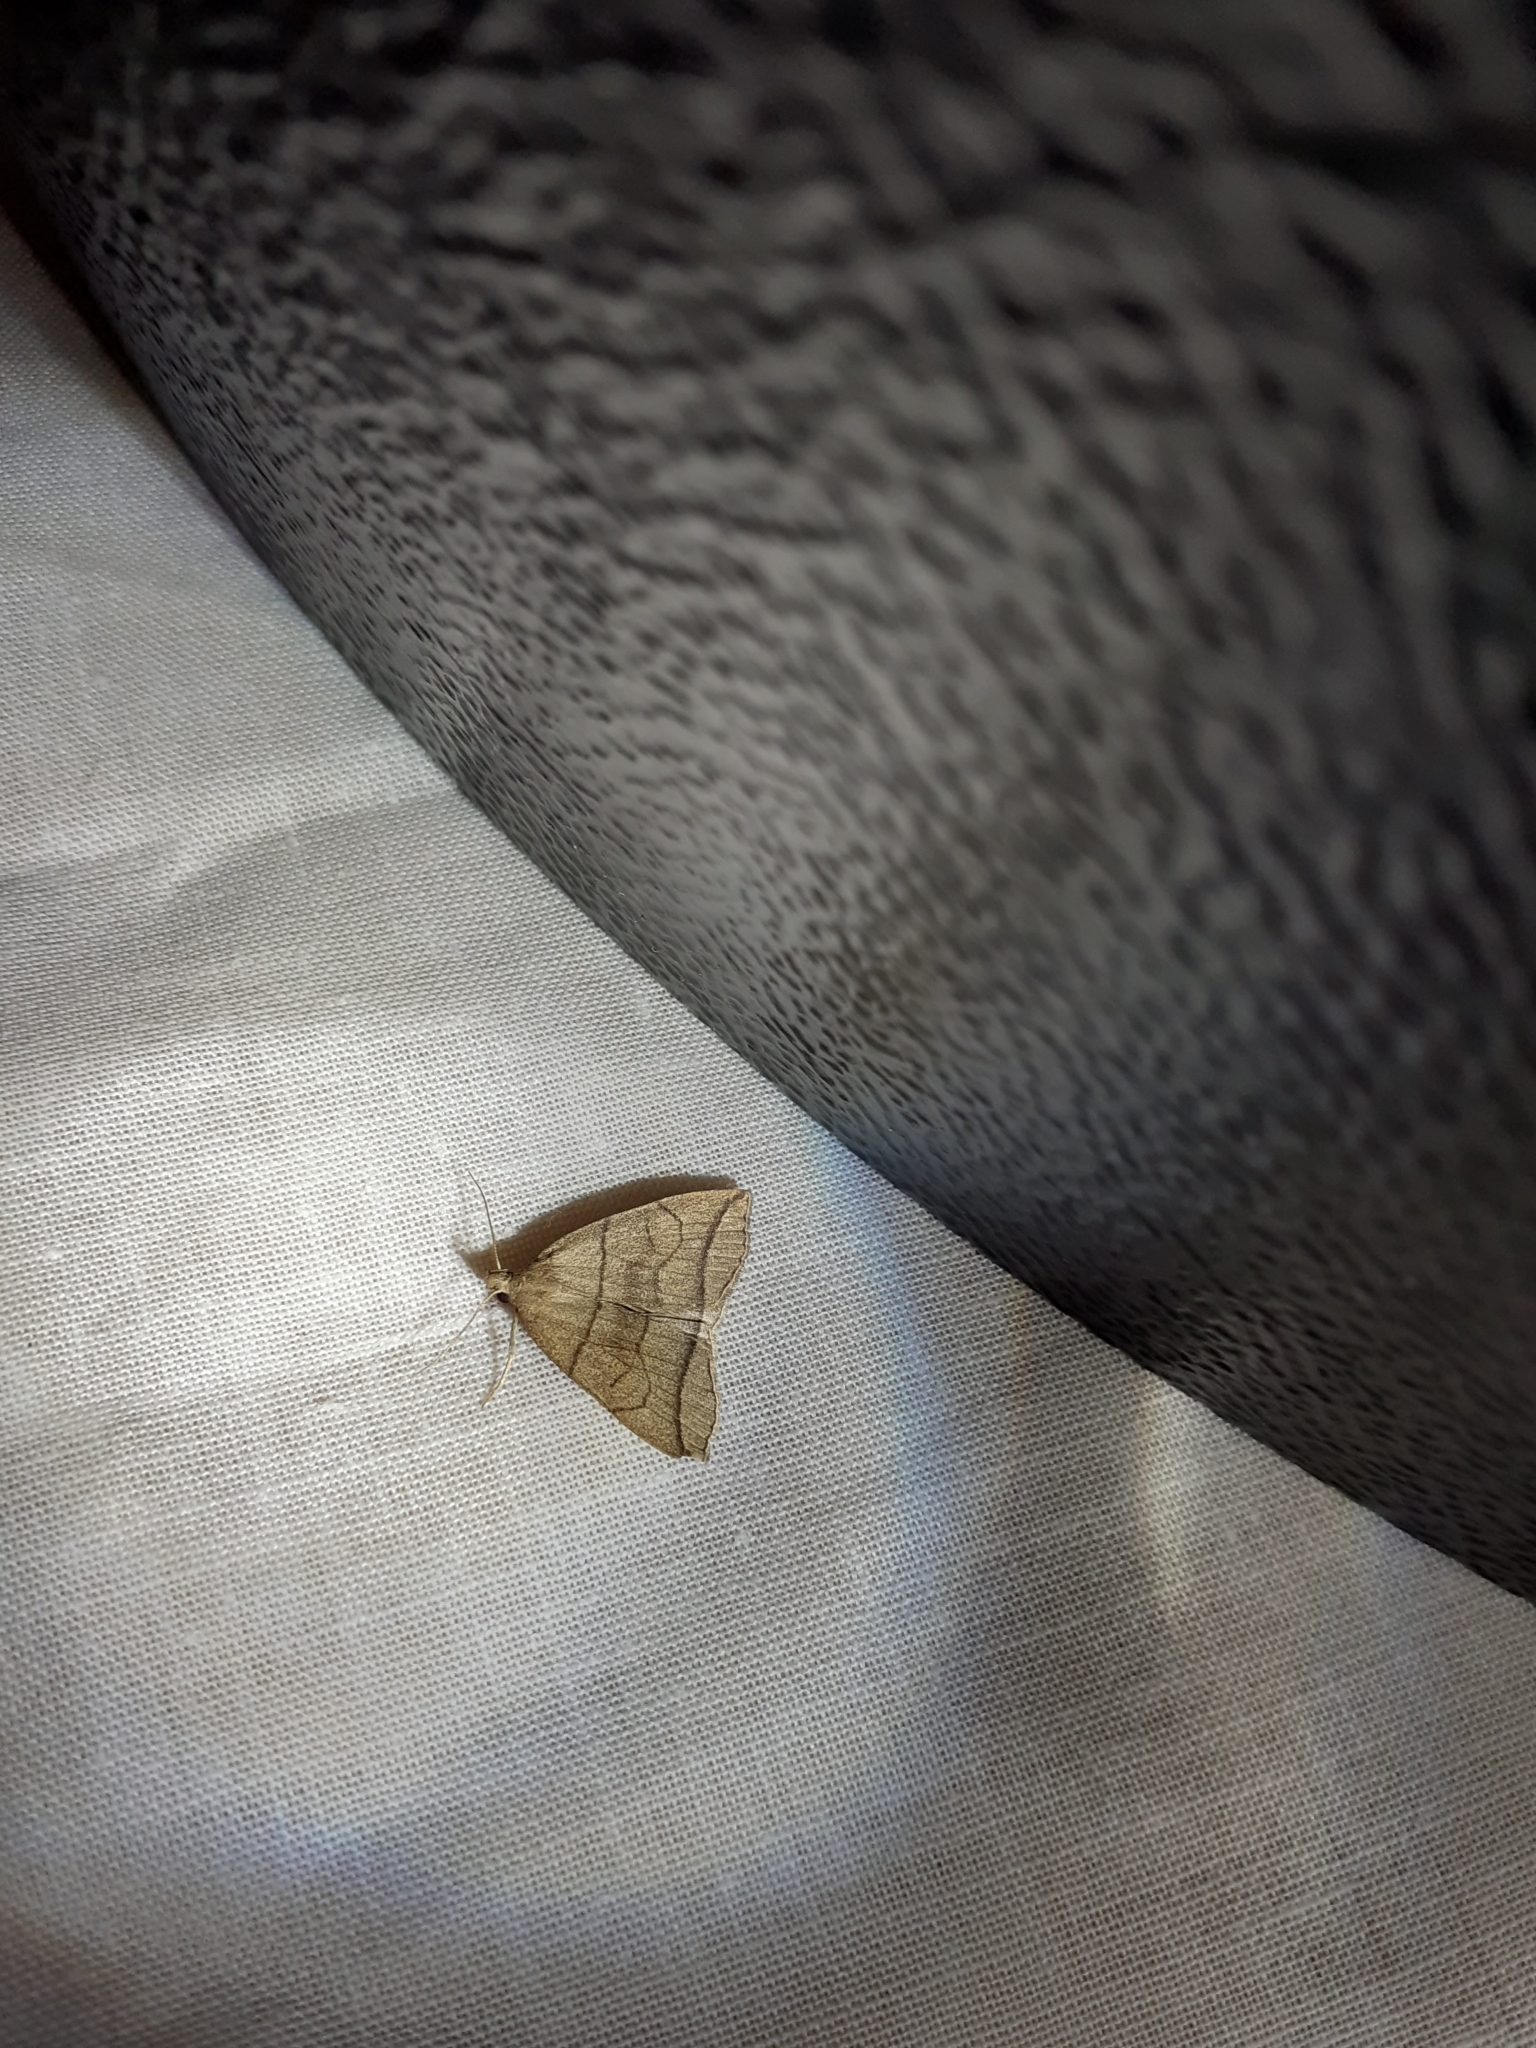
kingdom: Animalia
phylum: Arthropoda
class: Insecta
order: Lepidoptera
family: Erebidae
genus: Herminia
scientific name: Herminia grisealis
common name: Small fan-foot
